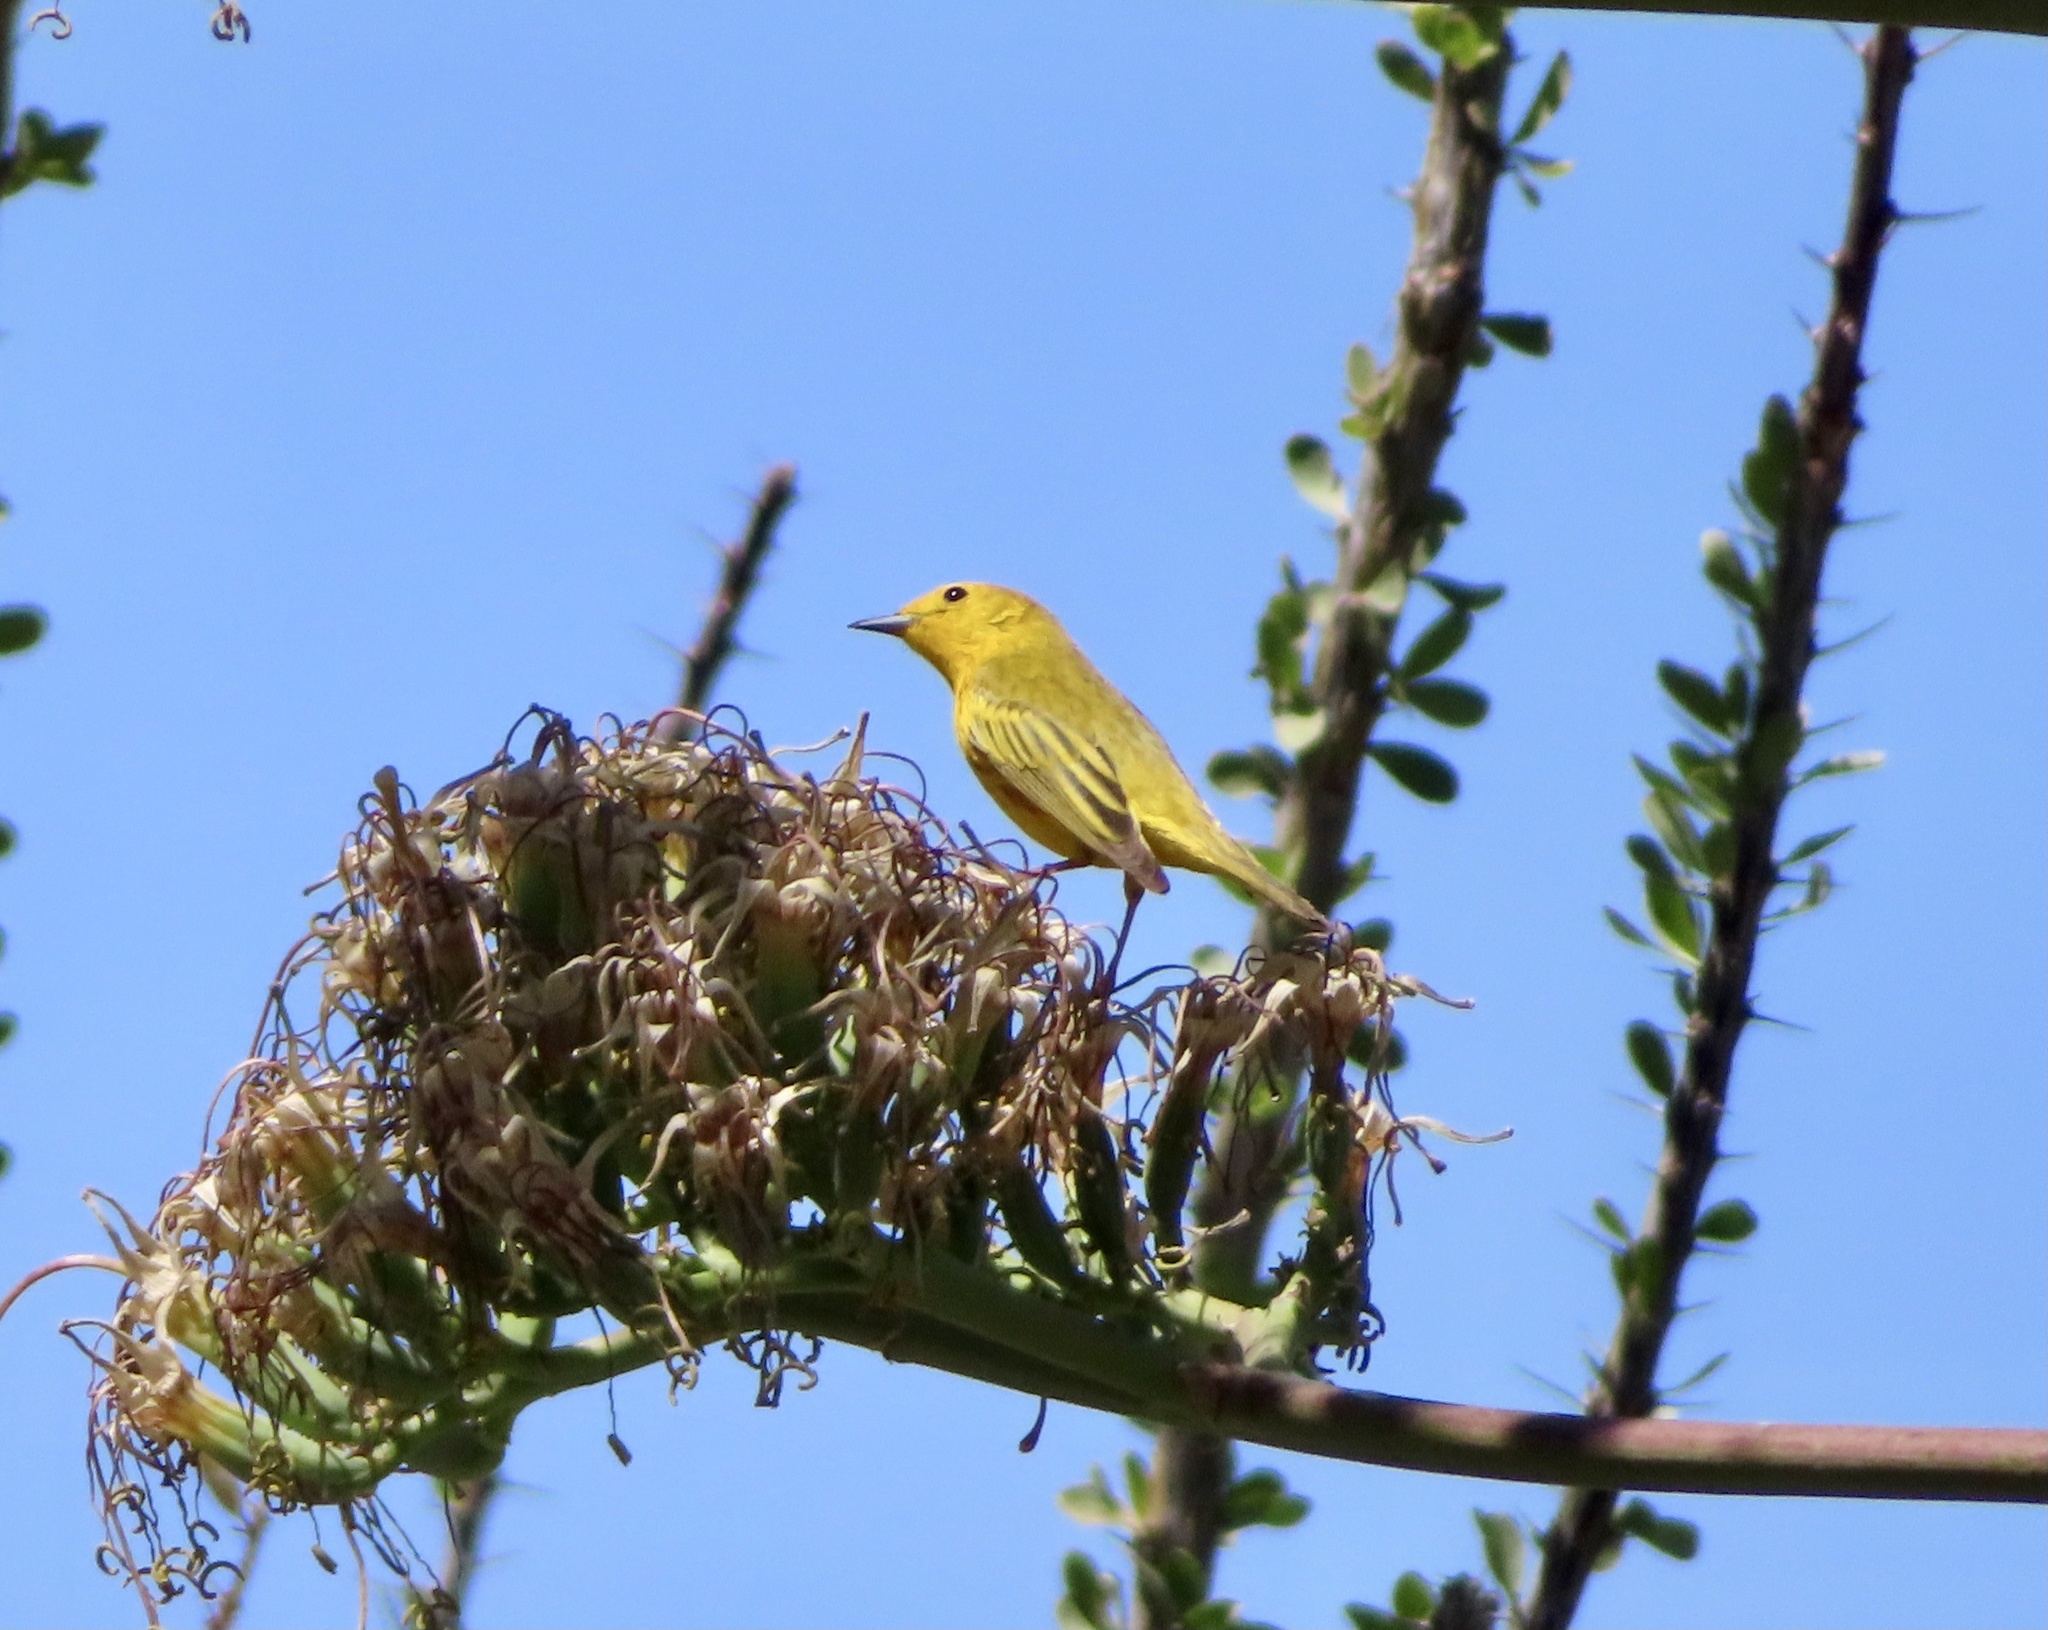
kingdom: Animalia
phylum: Chordata
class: Aves
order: Passeriformes
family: Parulidae
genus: Setophaga
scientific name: Setophaga petechia
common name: Yellow warbler
